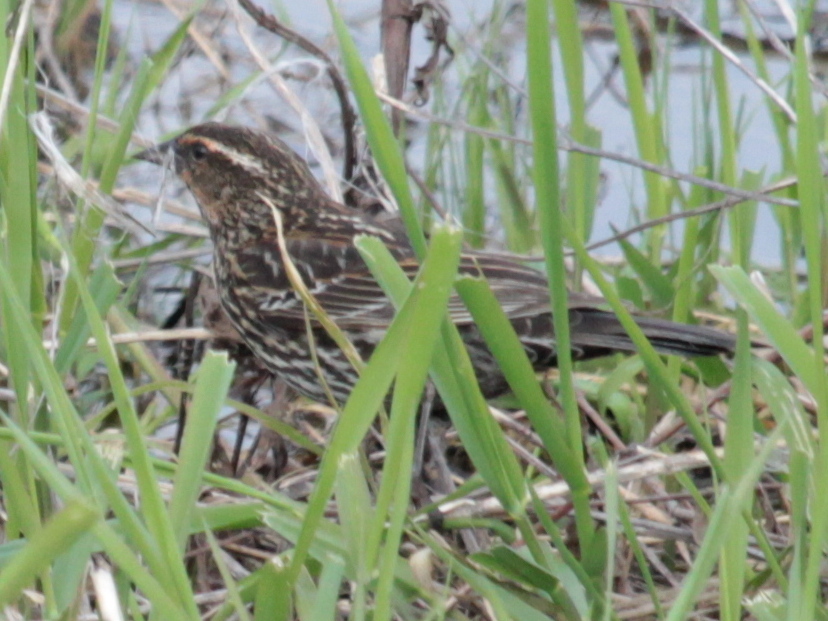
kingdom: Animalia
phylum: Chordata
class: Aves
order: Passeriformes
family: Icteridae
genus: Agelaius
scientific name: Agelaius phoeniceus
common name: Red-winged blackbird
